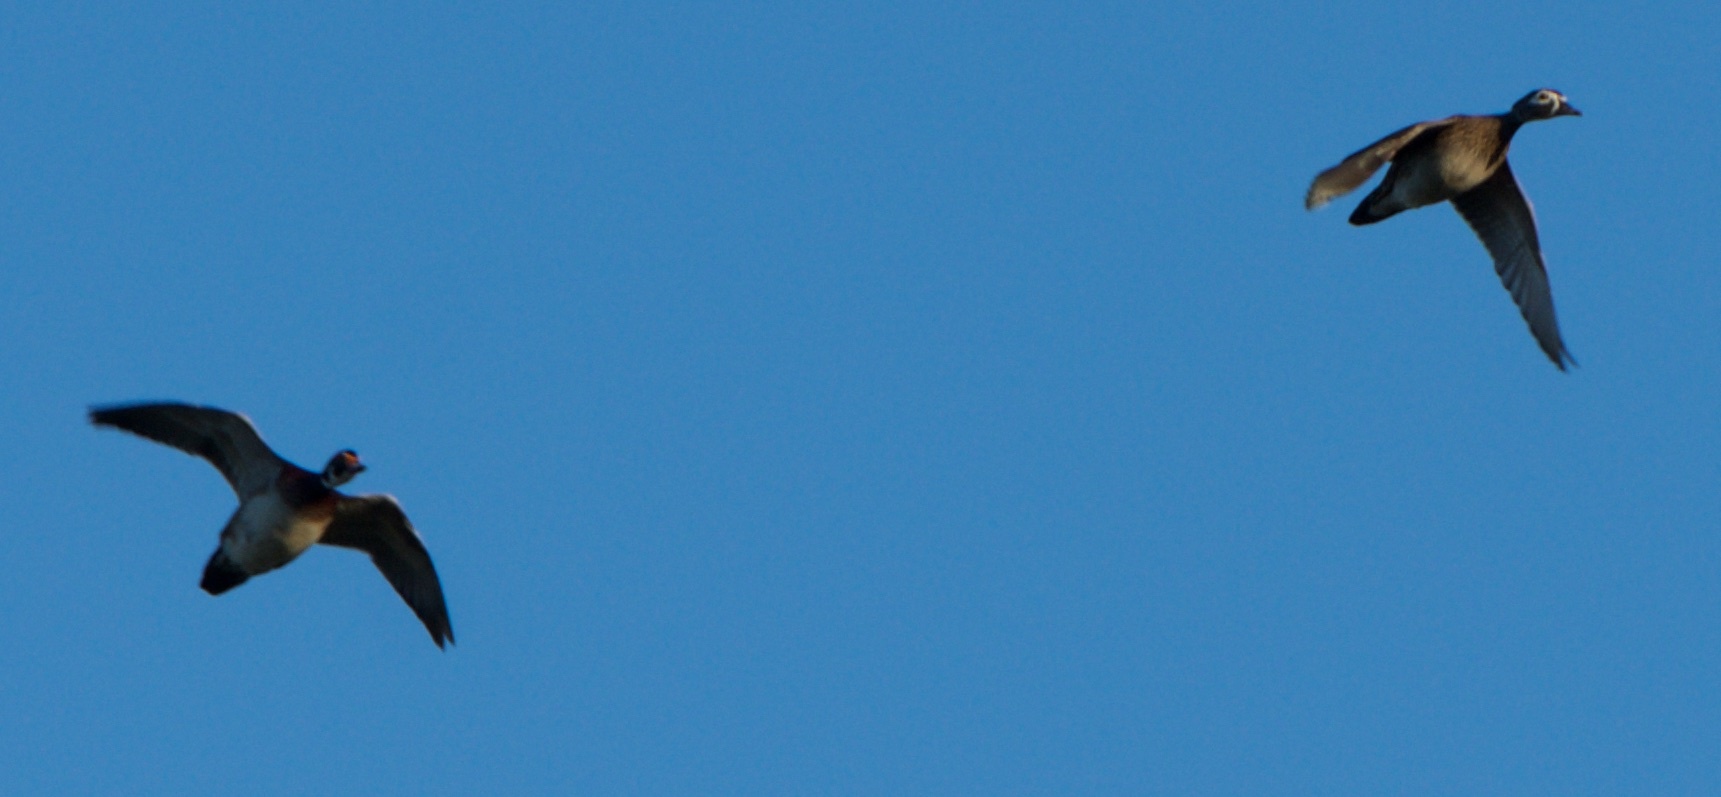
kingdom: Animalia
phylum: Chordata
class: Aves
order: Anseriformes
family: Anatidae
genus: Aix
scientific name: Aix sponsa
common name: Wood duck
